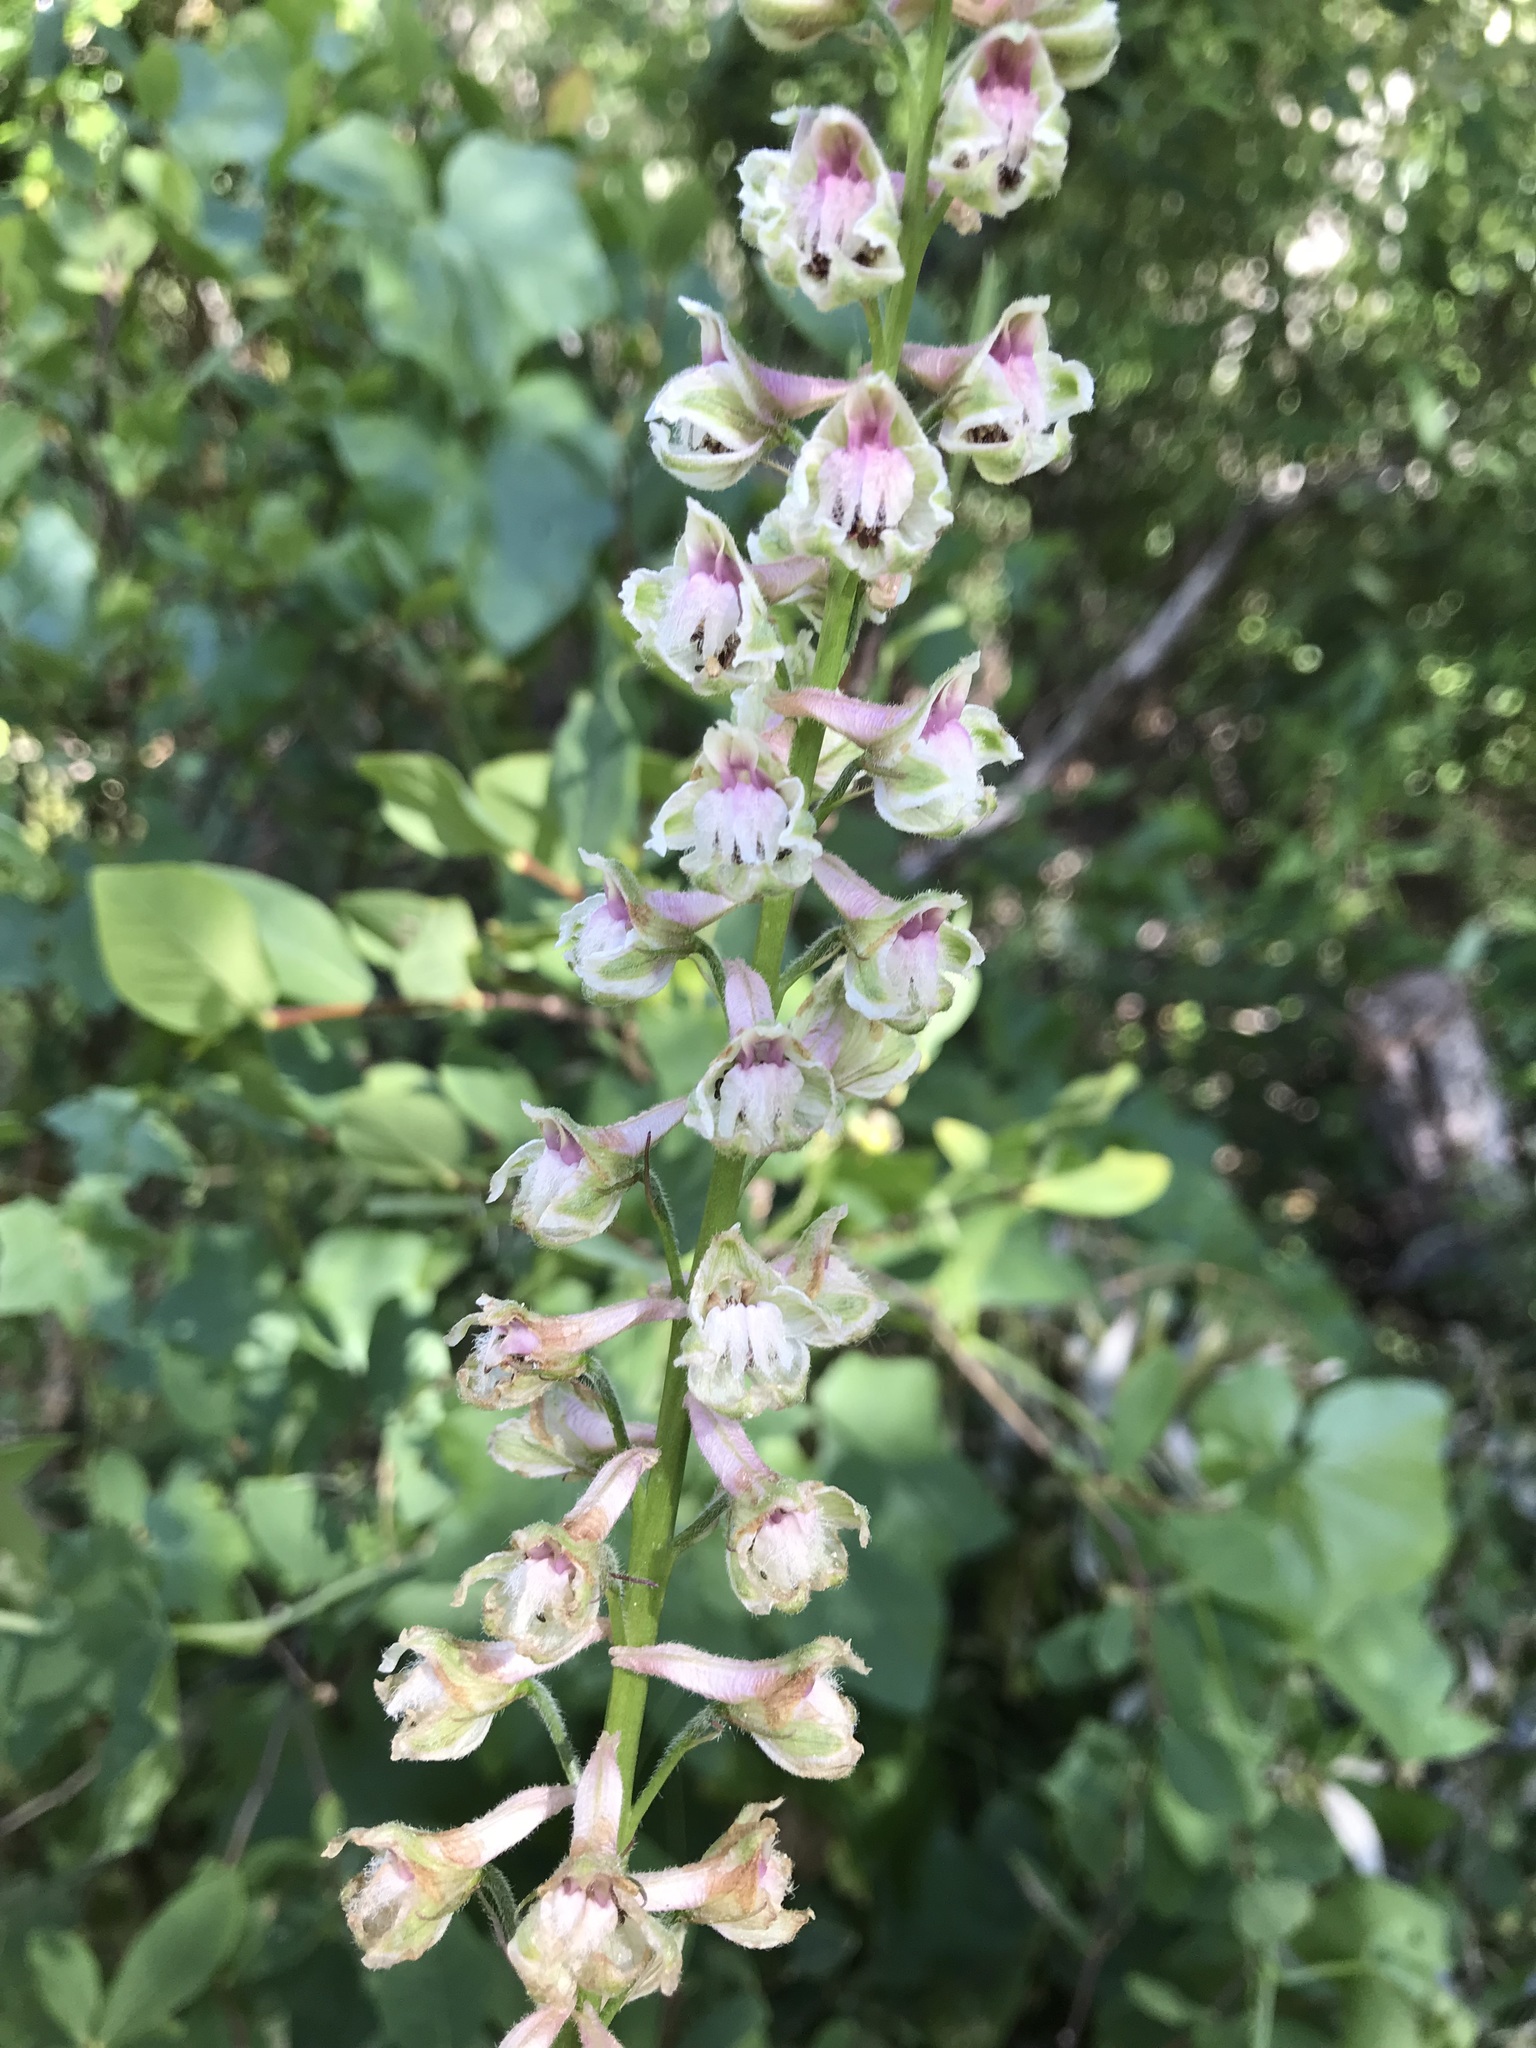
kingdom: Plantae
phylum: Tracheophyta
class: Magnoliopsida
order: Ranunculales
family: Ranunculaceae
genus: Delphinium
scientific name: Delphinium californicum
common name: California larkspur
